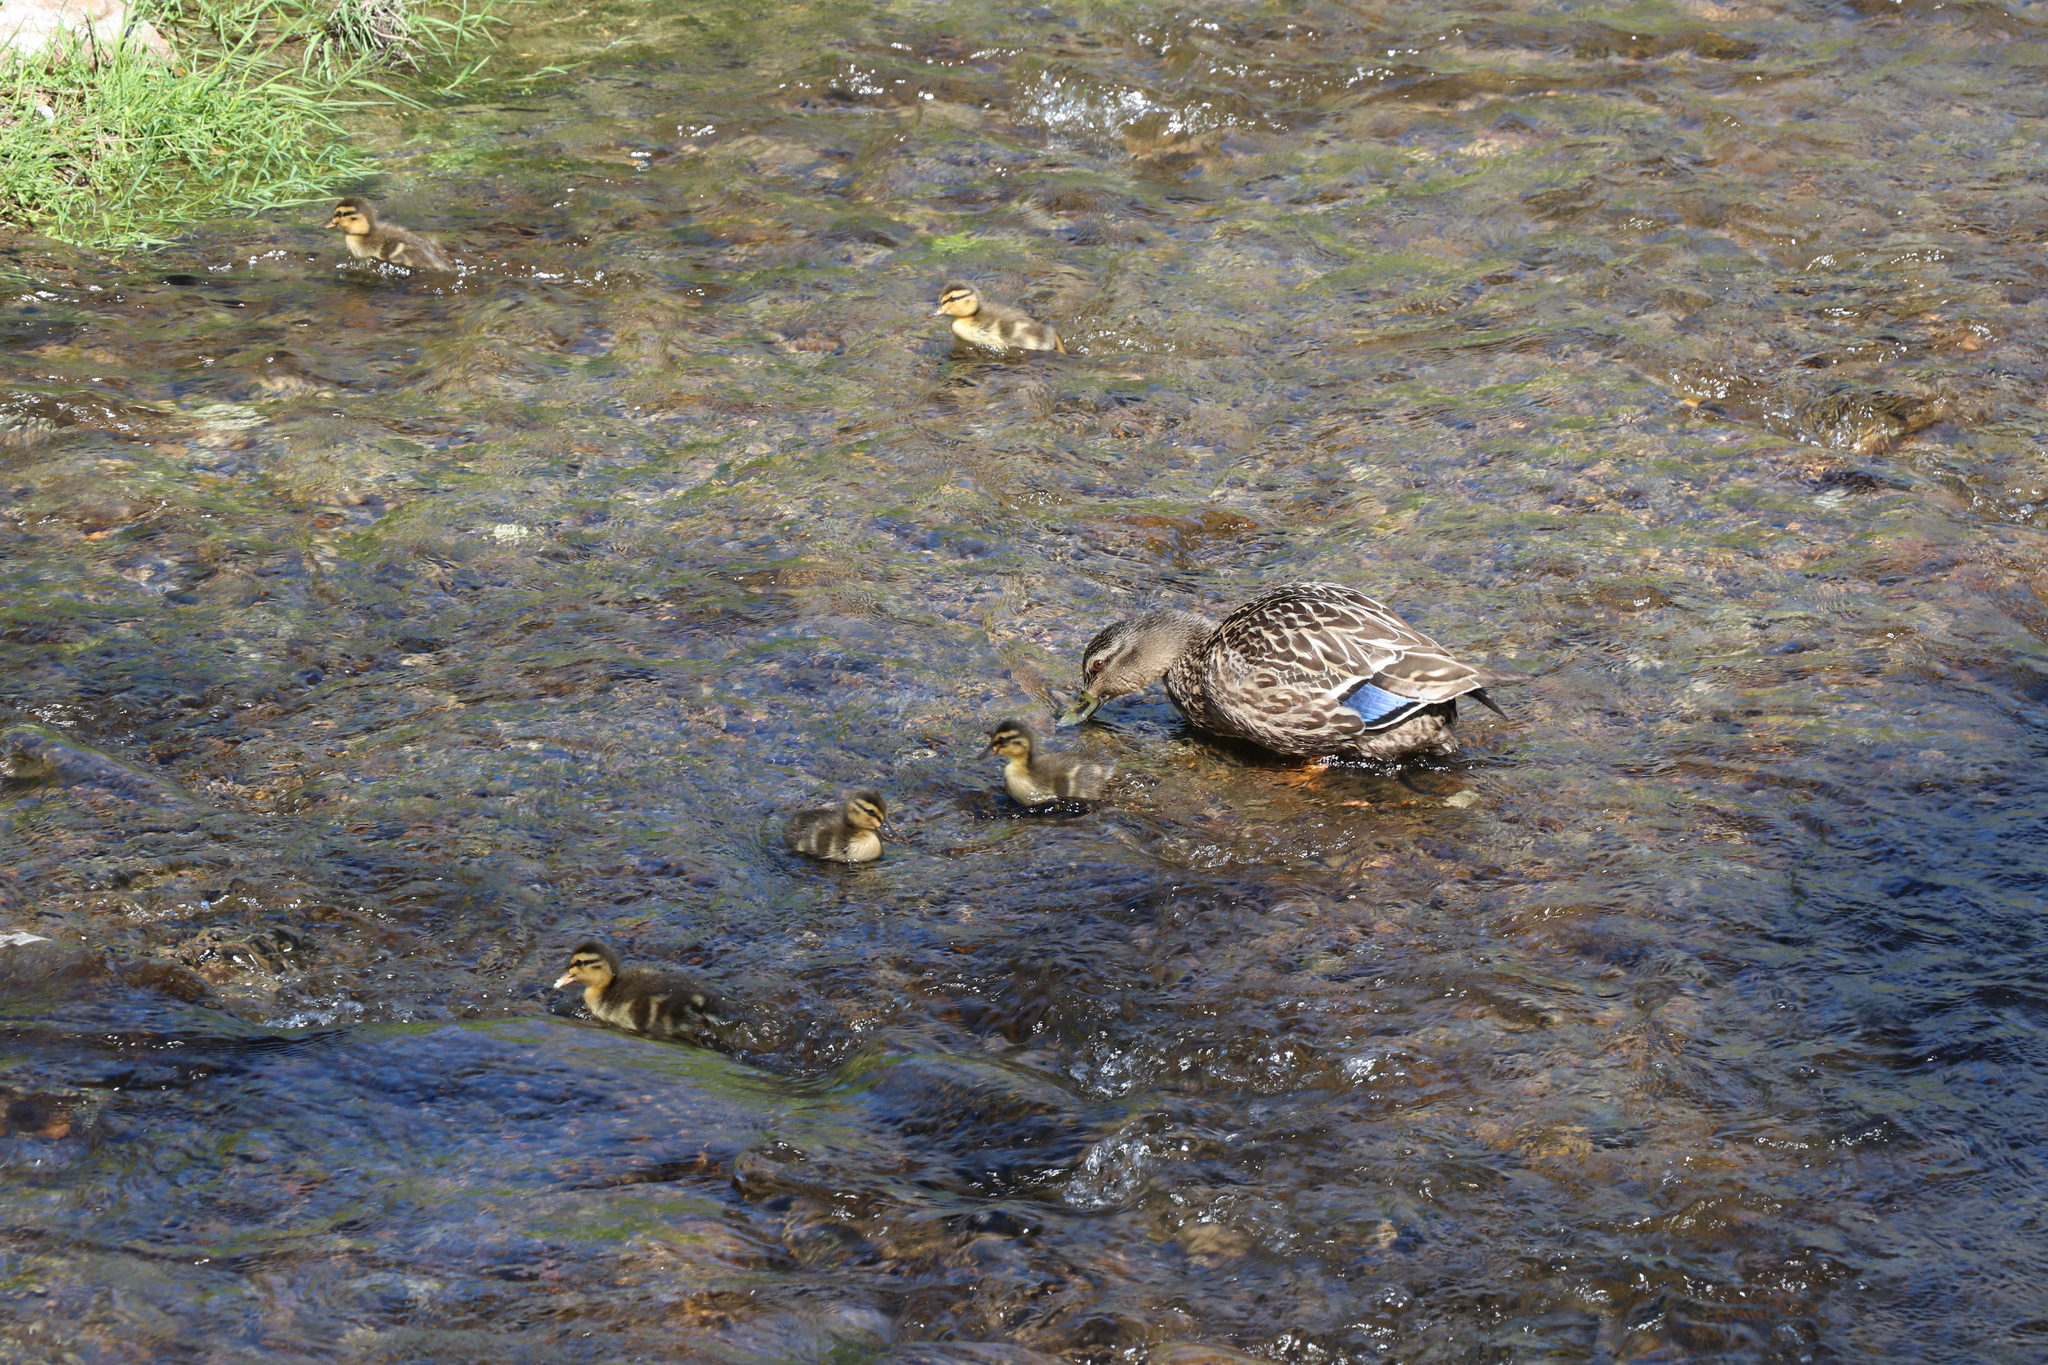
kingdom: Animalia
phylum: Chordata
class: Aves
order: Anseriformes
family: Anatidae
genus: Anas
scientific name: Anas platyrhynchos
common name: Mallard
